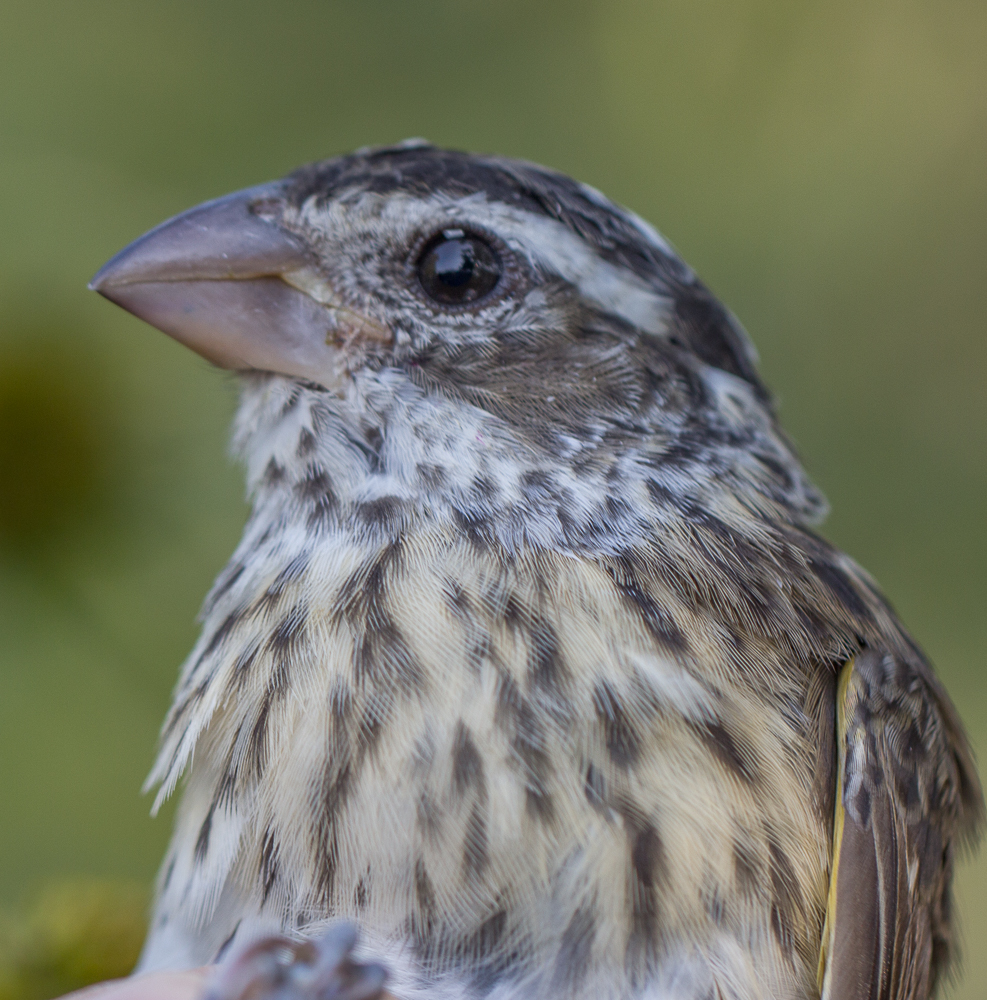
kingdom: Animalia
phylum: Chordata
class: Aves
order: Passeriformes
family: Cardinalidae
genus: Pheucticus
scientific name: Pheucticus ludovicianus
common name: Rose-breasted grosbeak
